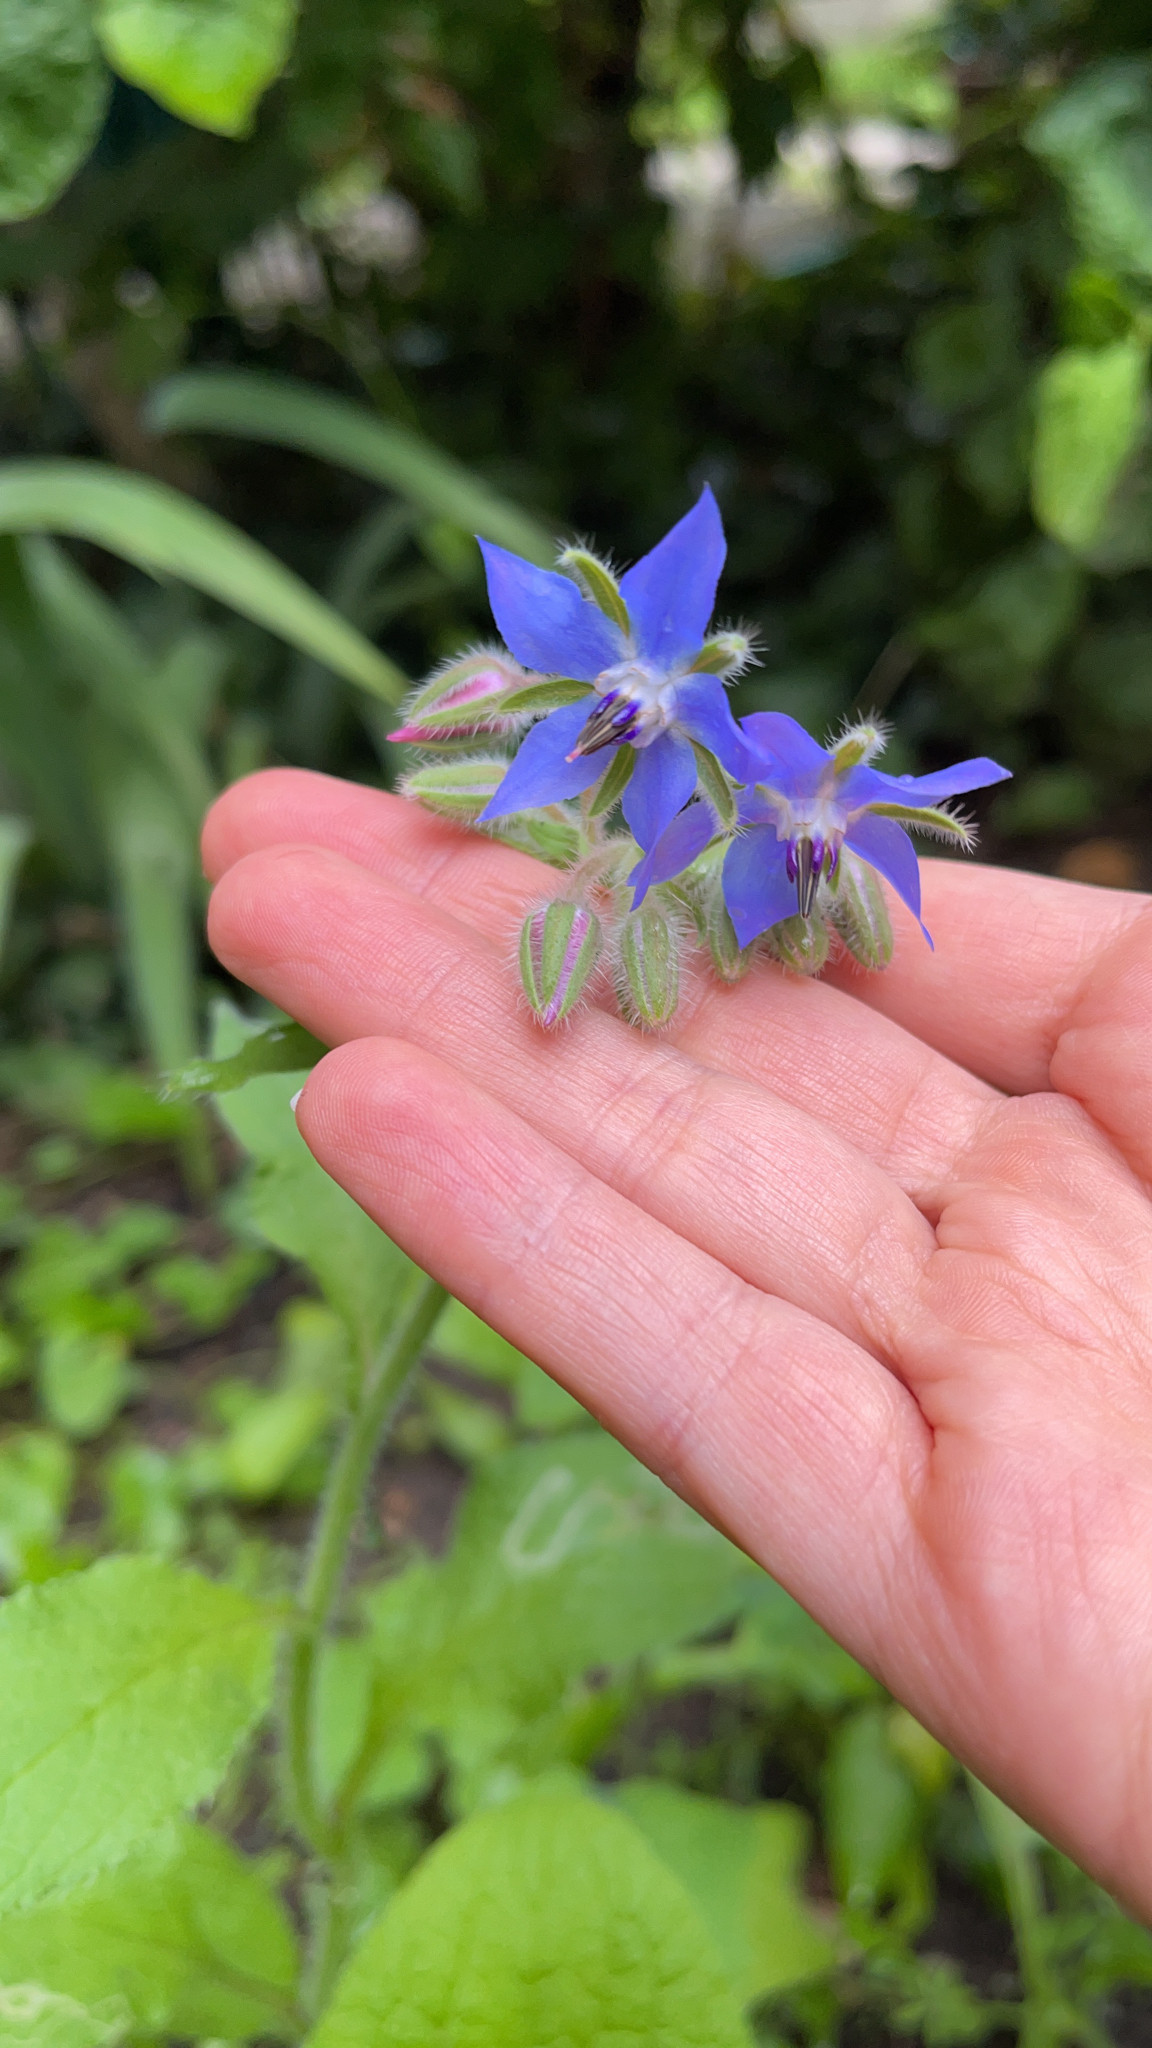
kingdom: Plantae
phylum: Tracheophyta
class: Magnoliopsida
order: Boraginales
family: Boraginaceae
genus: Borago
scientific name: Borago officinalis
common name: Borage
